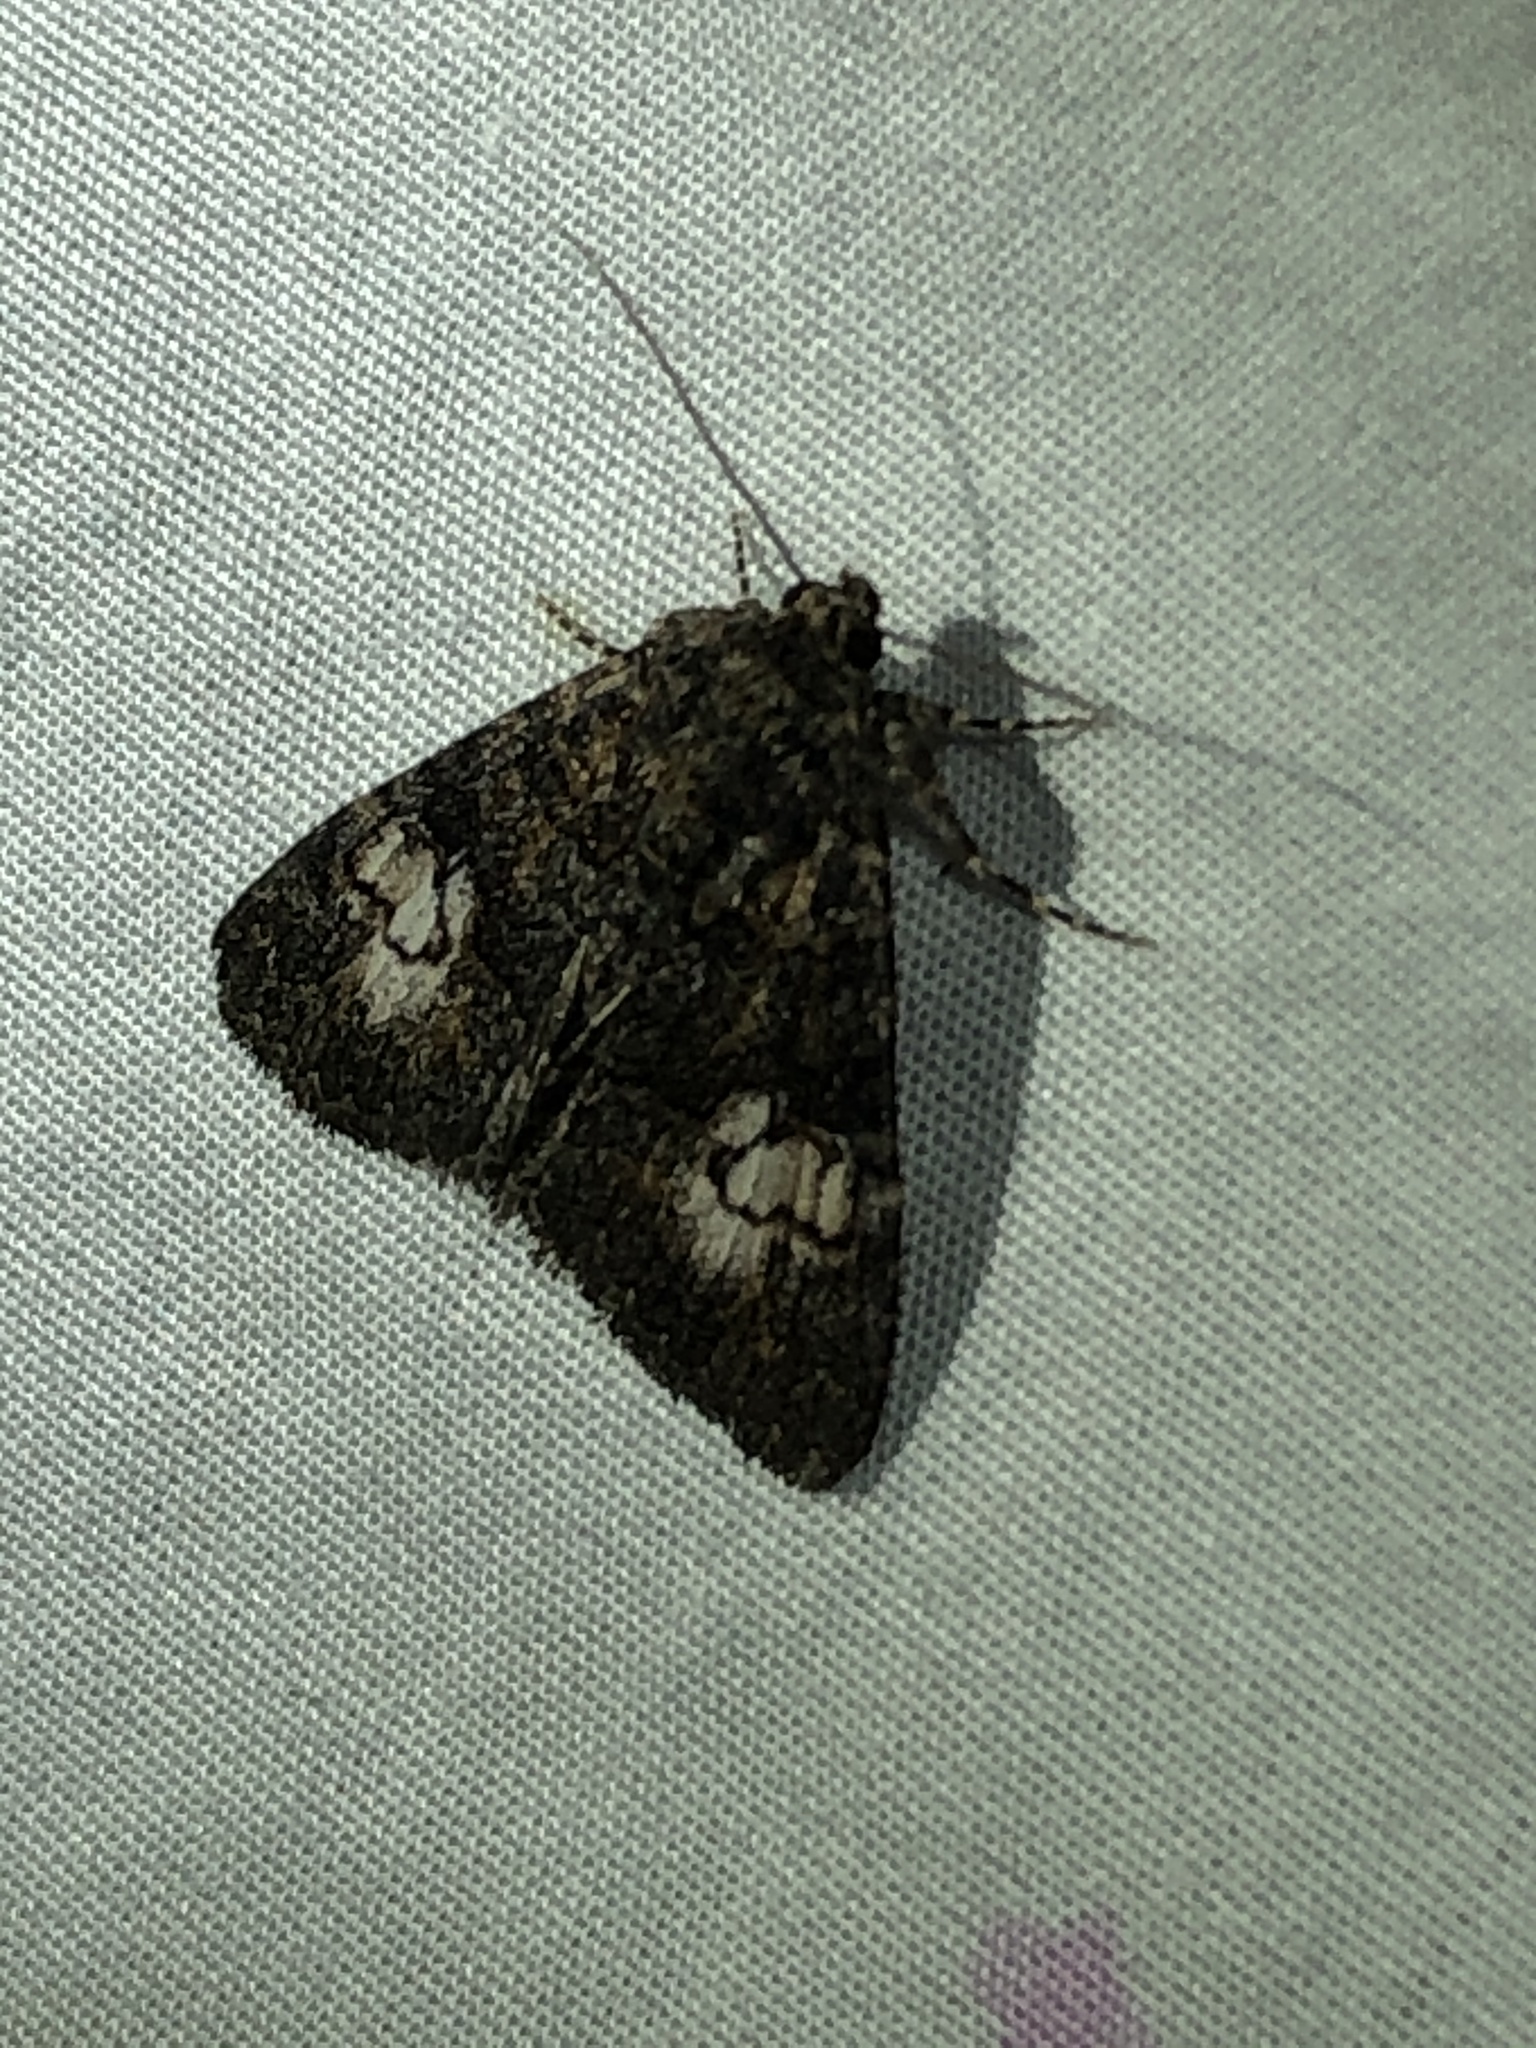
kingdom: Animalia
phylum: Arthropoda
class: Insecta
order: Lepidoptera
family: Erebidae
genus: Elousa
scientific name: Elousa mima
